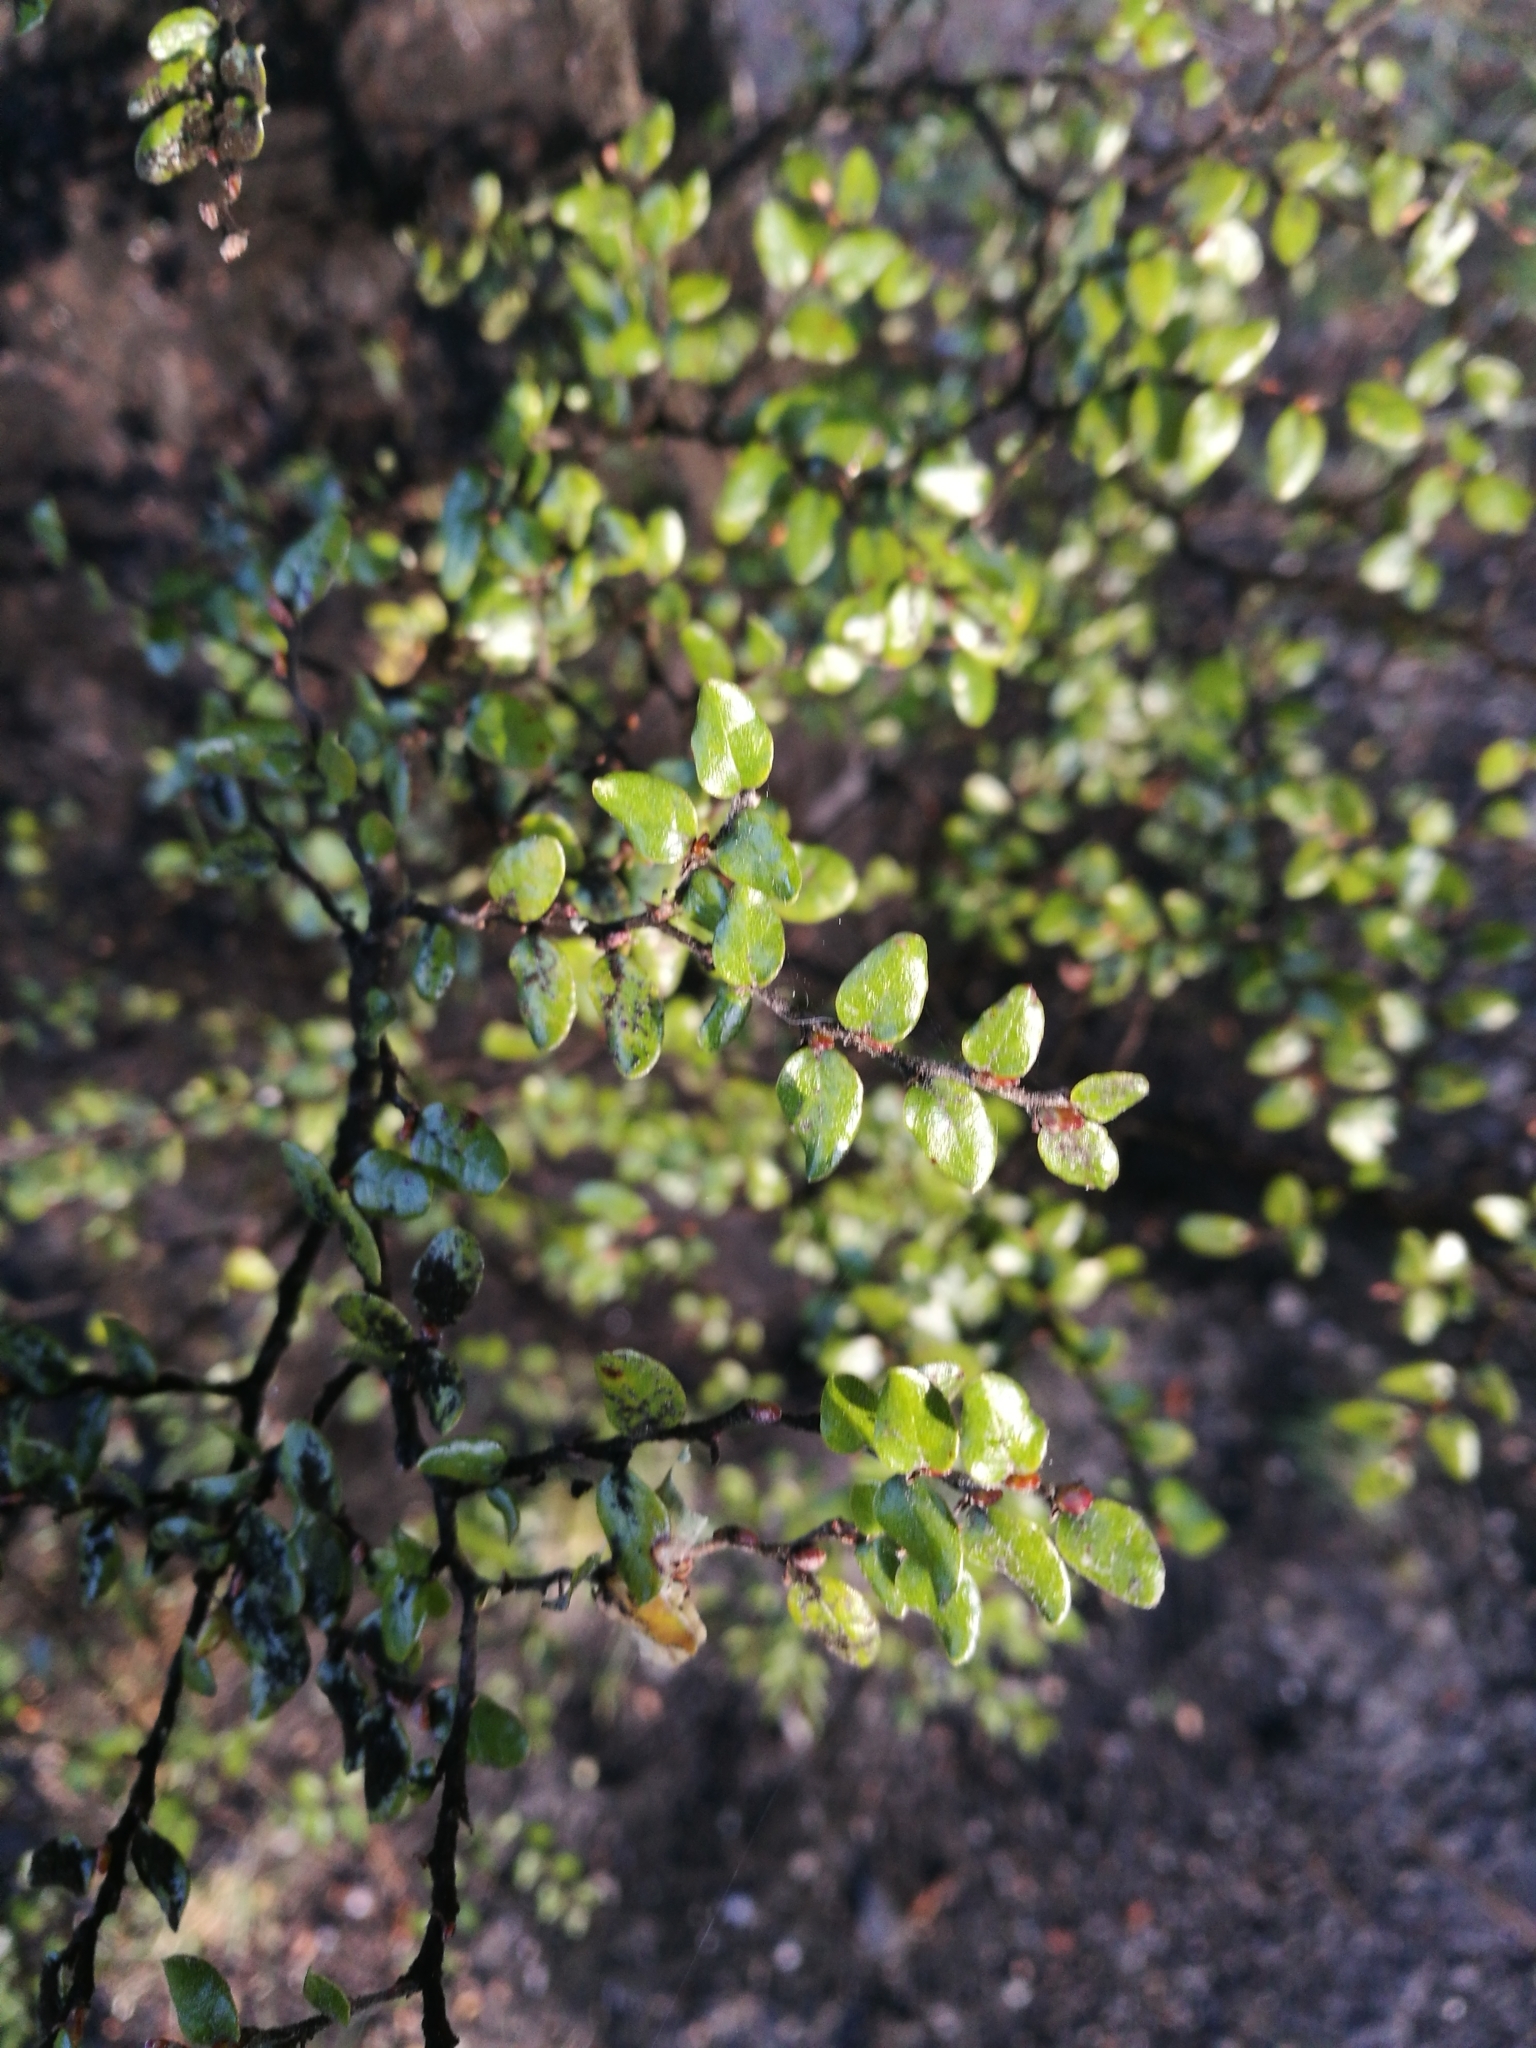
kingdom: Plantae
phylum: Tracheophyta
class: Magnoliopsida
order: Fagales
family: Nothofagaceae
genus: Nothofagus
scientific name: Nothofagus solandri
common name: Black beech
